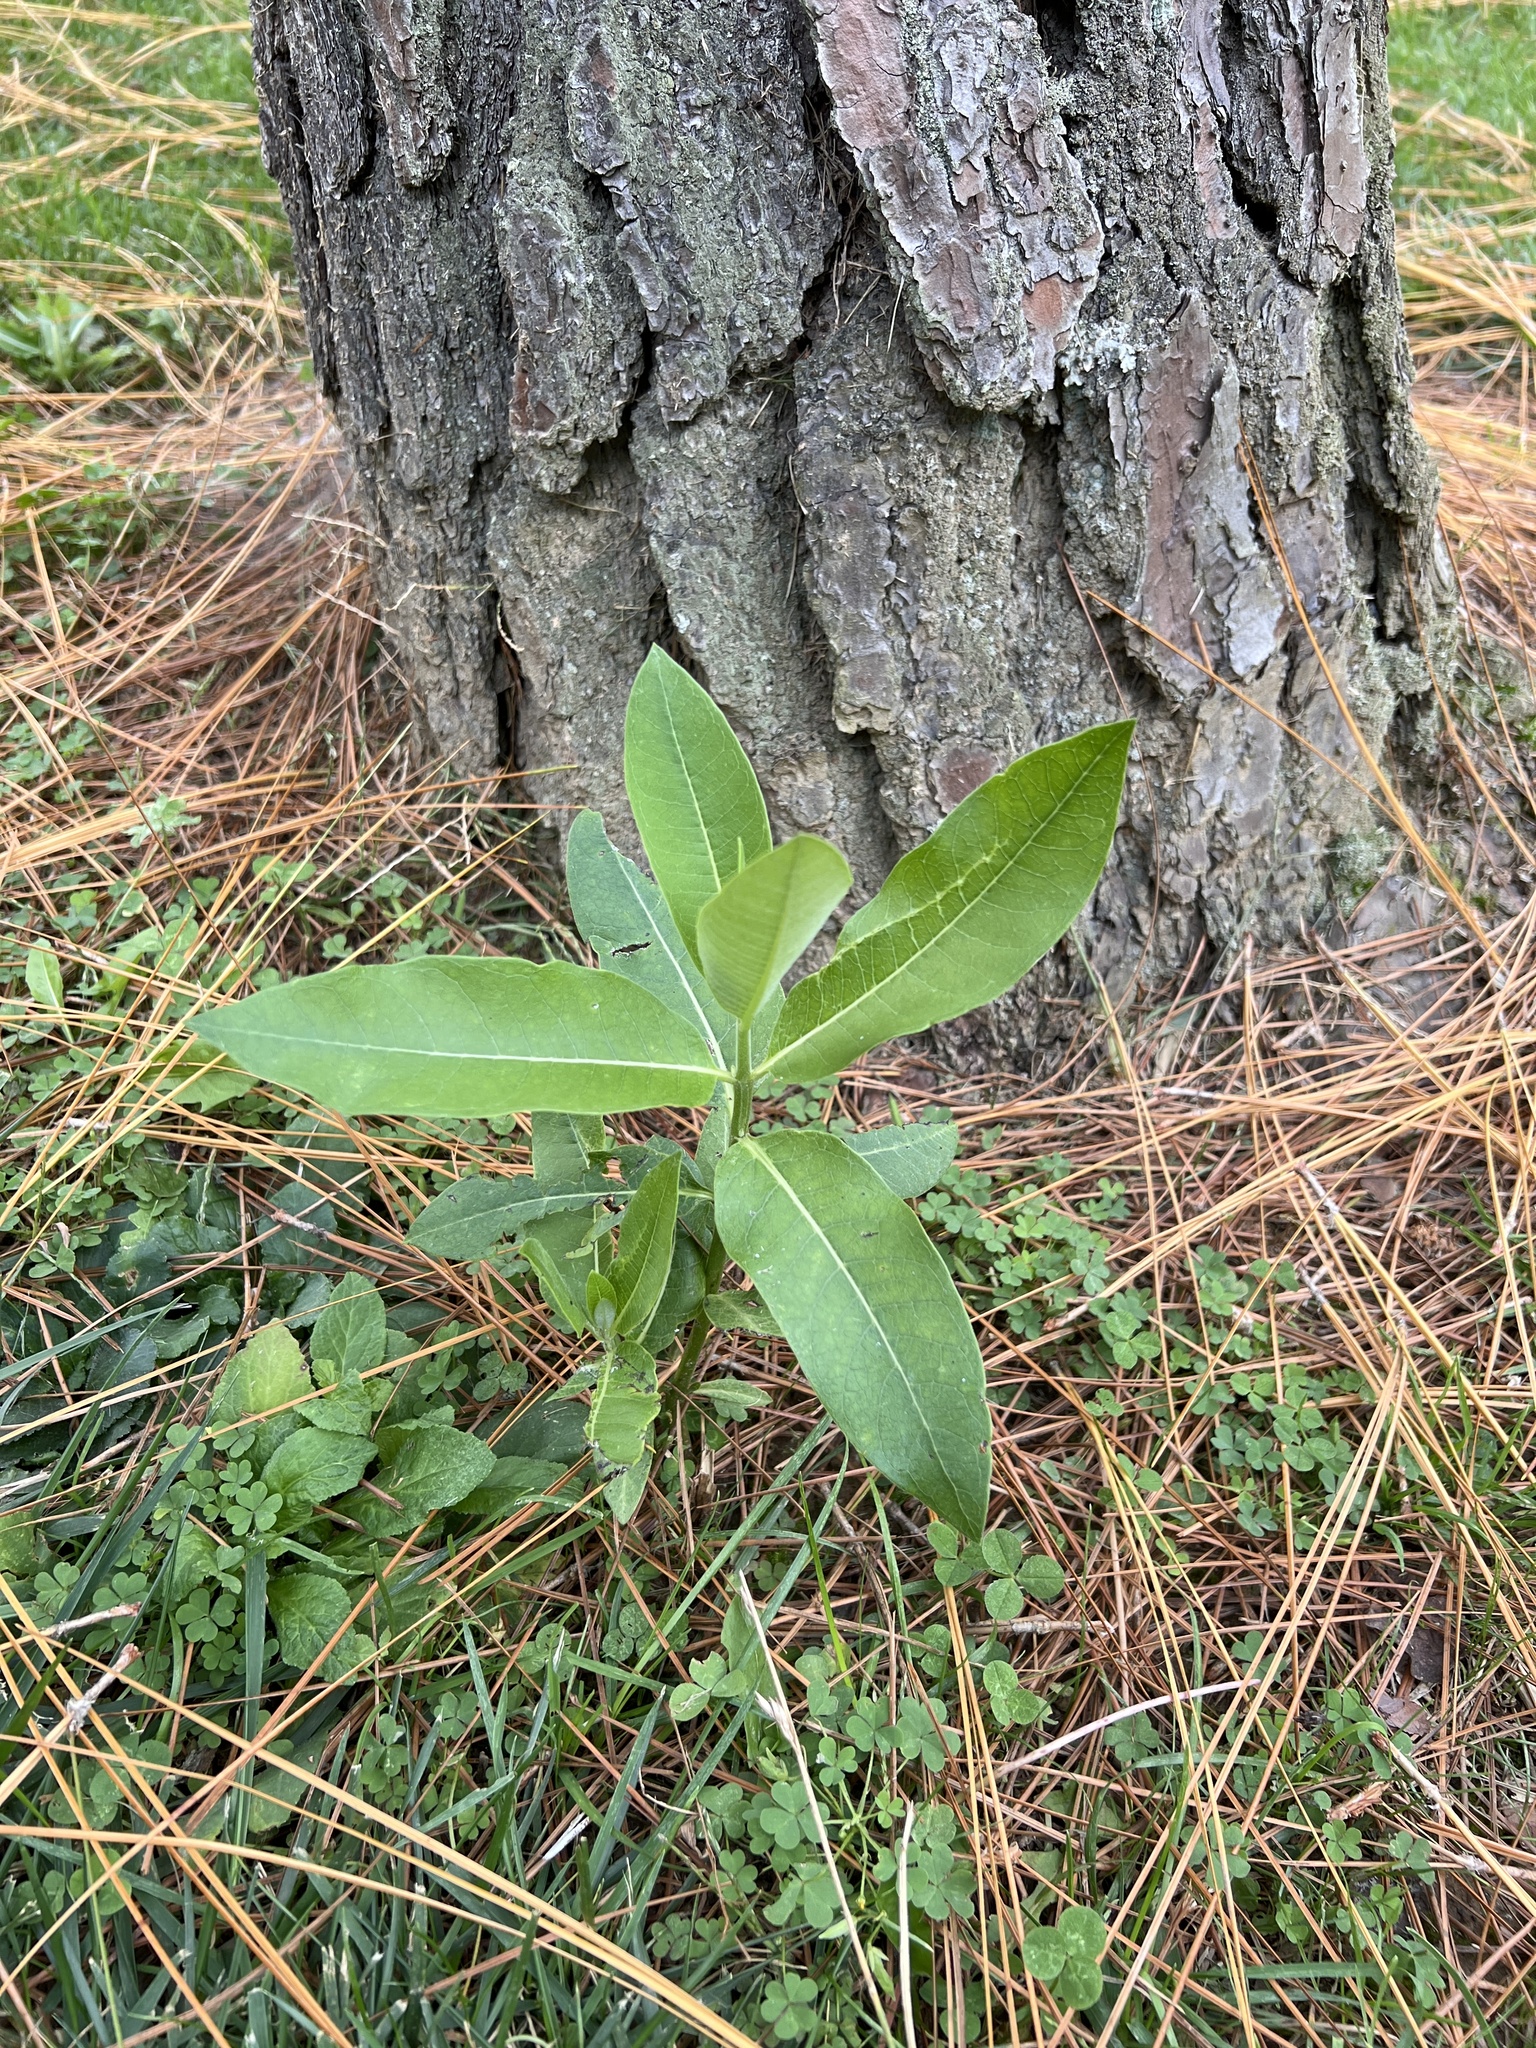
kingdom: Plantae
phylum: Tracheophyta
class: Magnoliopsida
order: Gentianales
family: Apocynaceae
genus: Asclepias
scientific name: Asclepias syriaca
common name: Common milkweed
